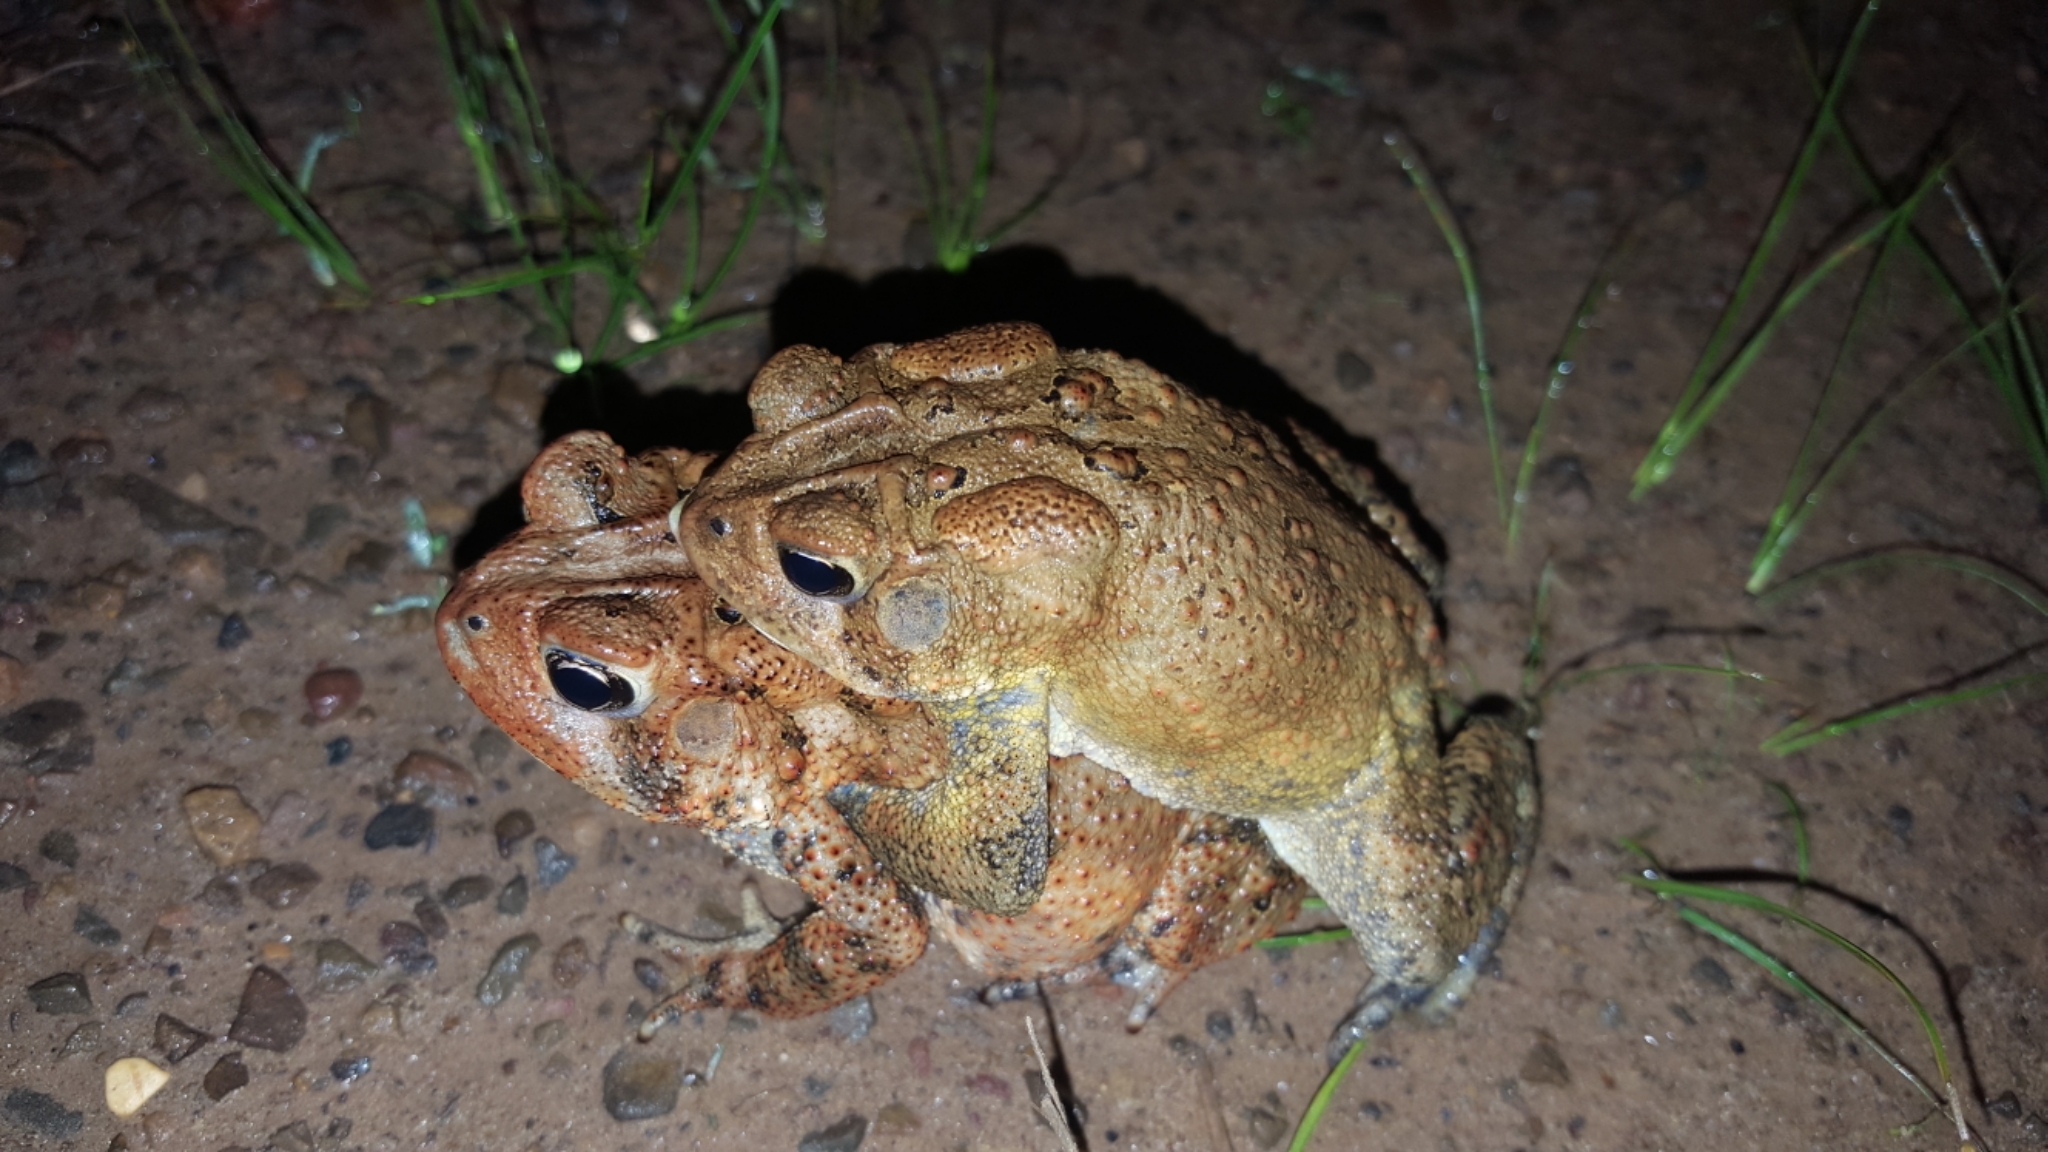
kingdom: Animalia
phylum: Chordata
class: Amphibia
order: Anura
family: Bufonidae
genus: Anaxyrus
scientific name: Anaxyrus americanus
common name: American toad
